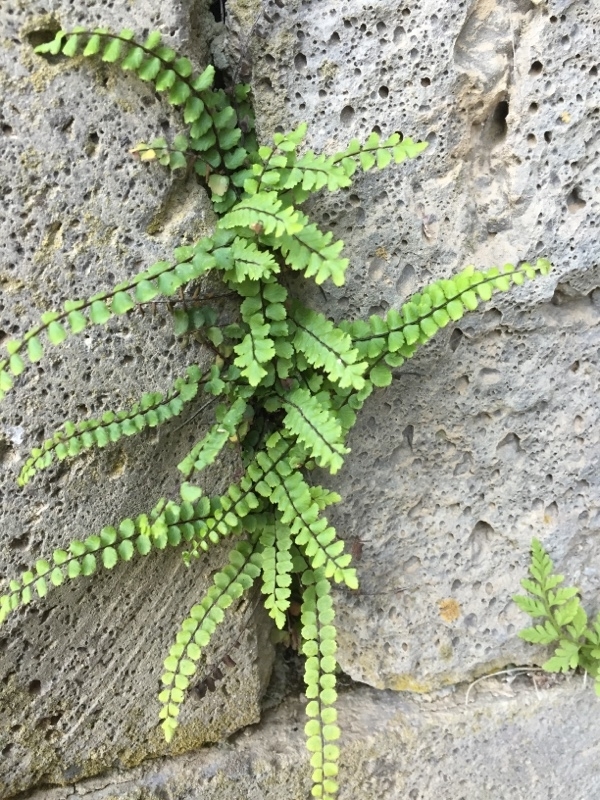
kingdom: Plantae
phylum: Tracheophyta
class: Polypodiopsida
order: Polypodiales
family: Aspleniaceae
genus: Asplenium
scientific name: Asplenium trichomanes
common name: Maidenhair spleenwort
